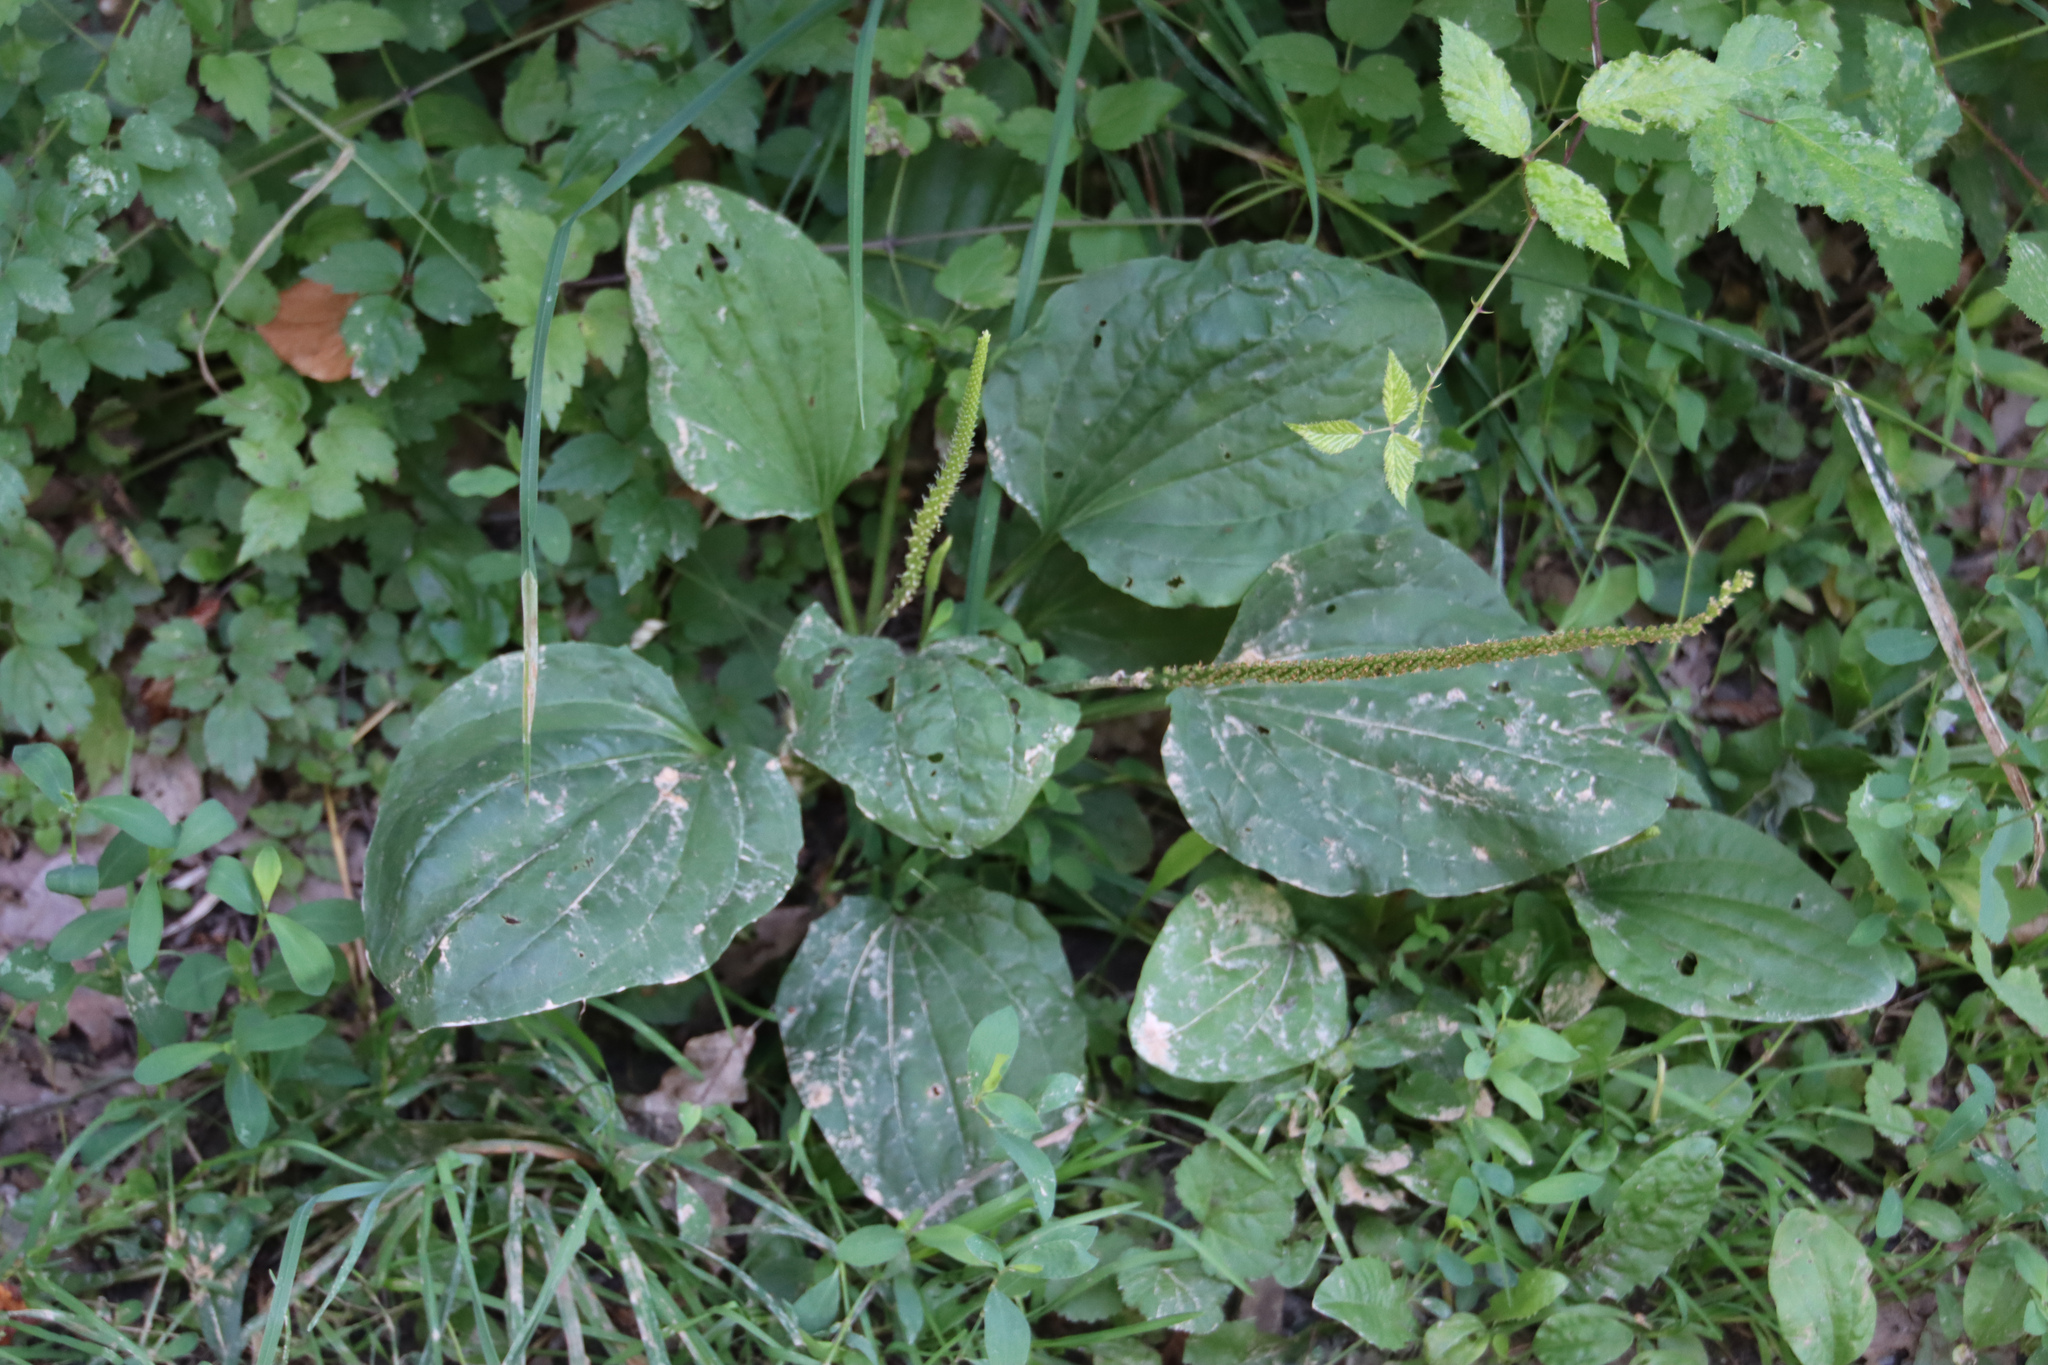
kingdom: Plantae
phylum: Tracheophyta
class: Magnoliopsida
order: Lamiales
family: Plantaginaceae
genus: Plantago
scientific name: Plantago major
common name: Common plantain
